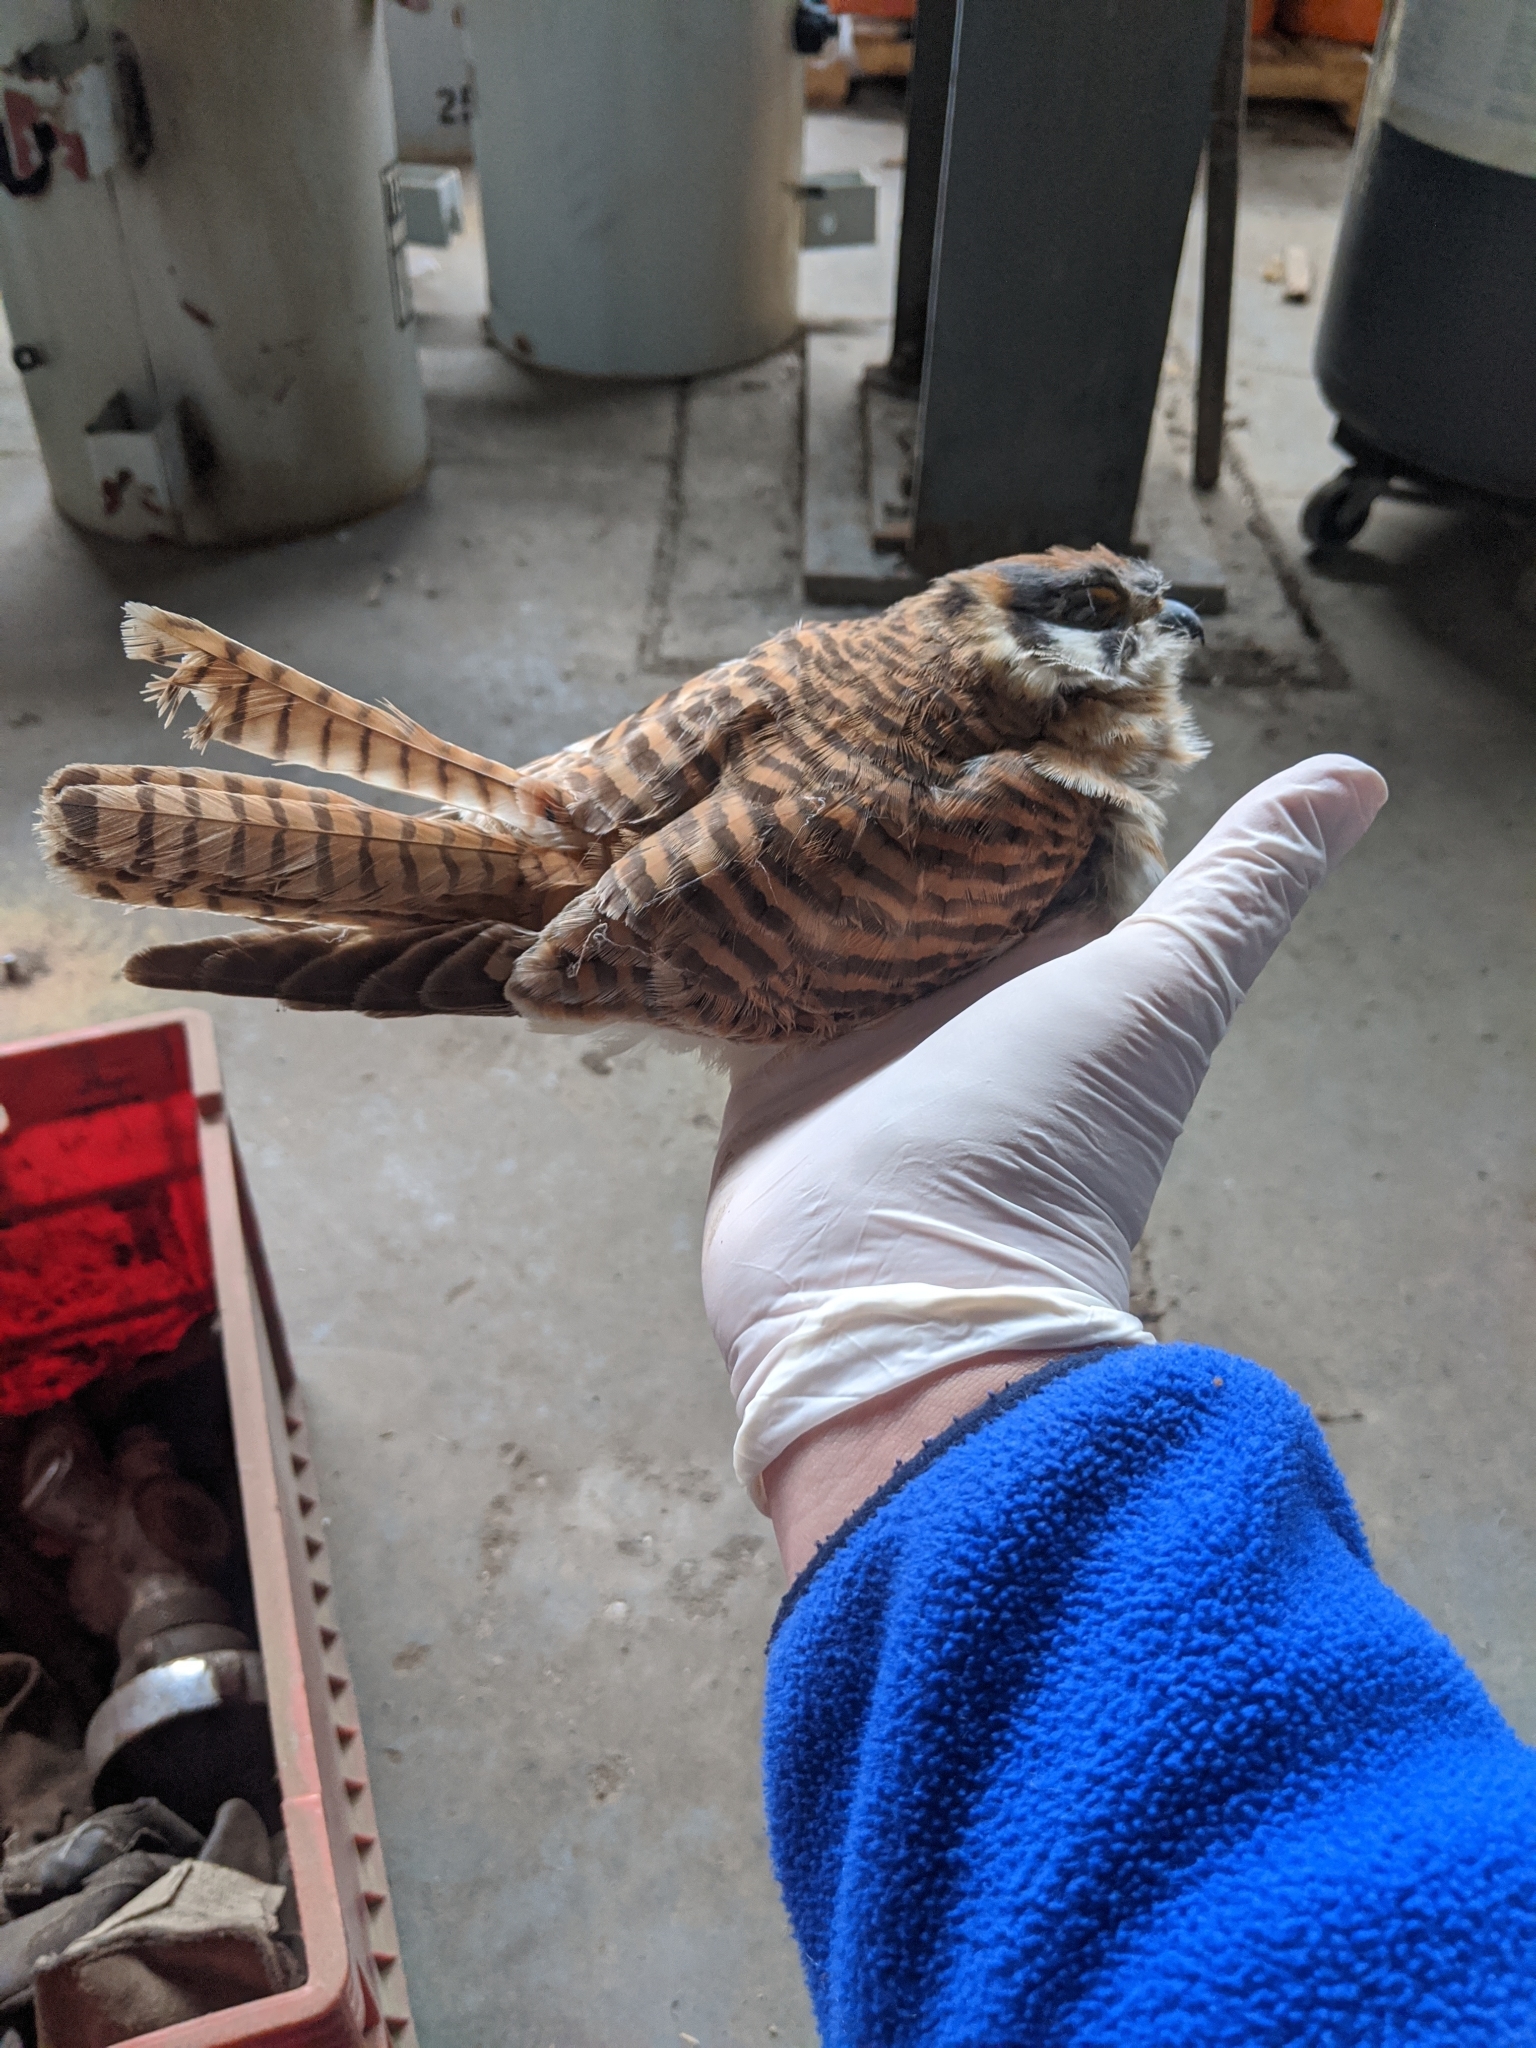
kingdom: Animalia
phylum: Chordata
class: Aves
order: Falconiformes
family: Falconidae
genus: Falco
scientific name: Falco sparverius
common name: American kestrel
